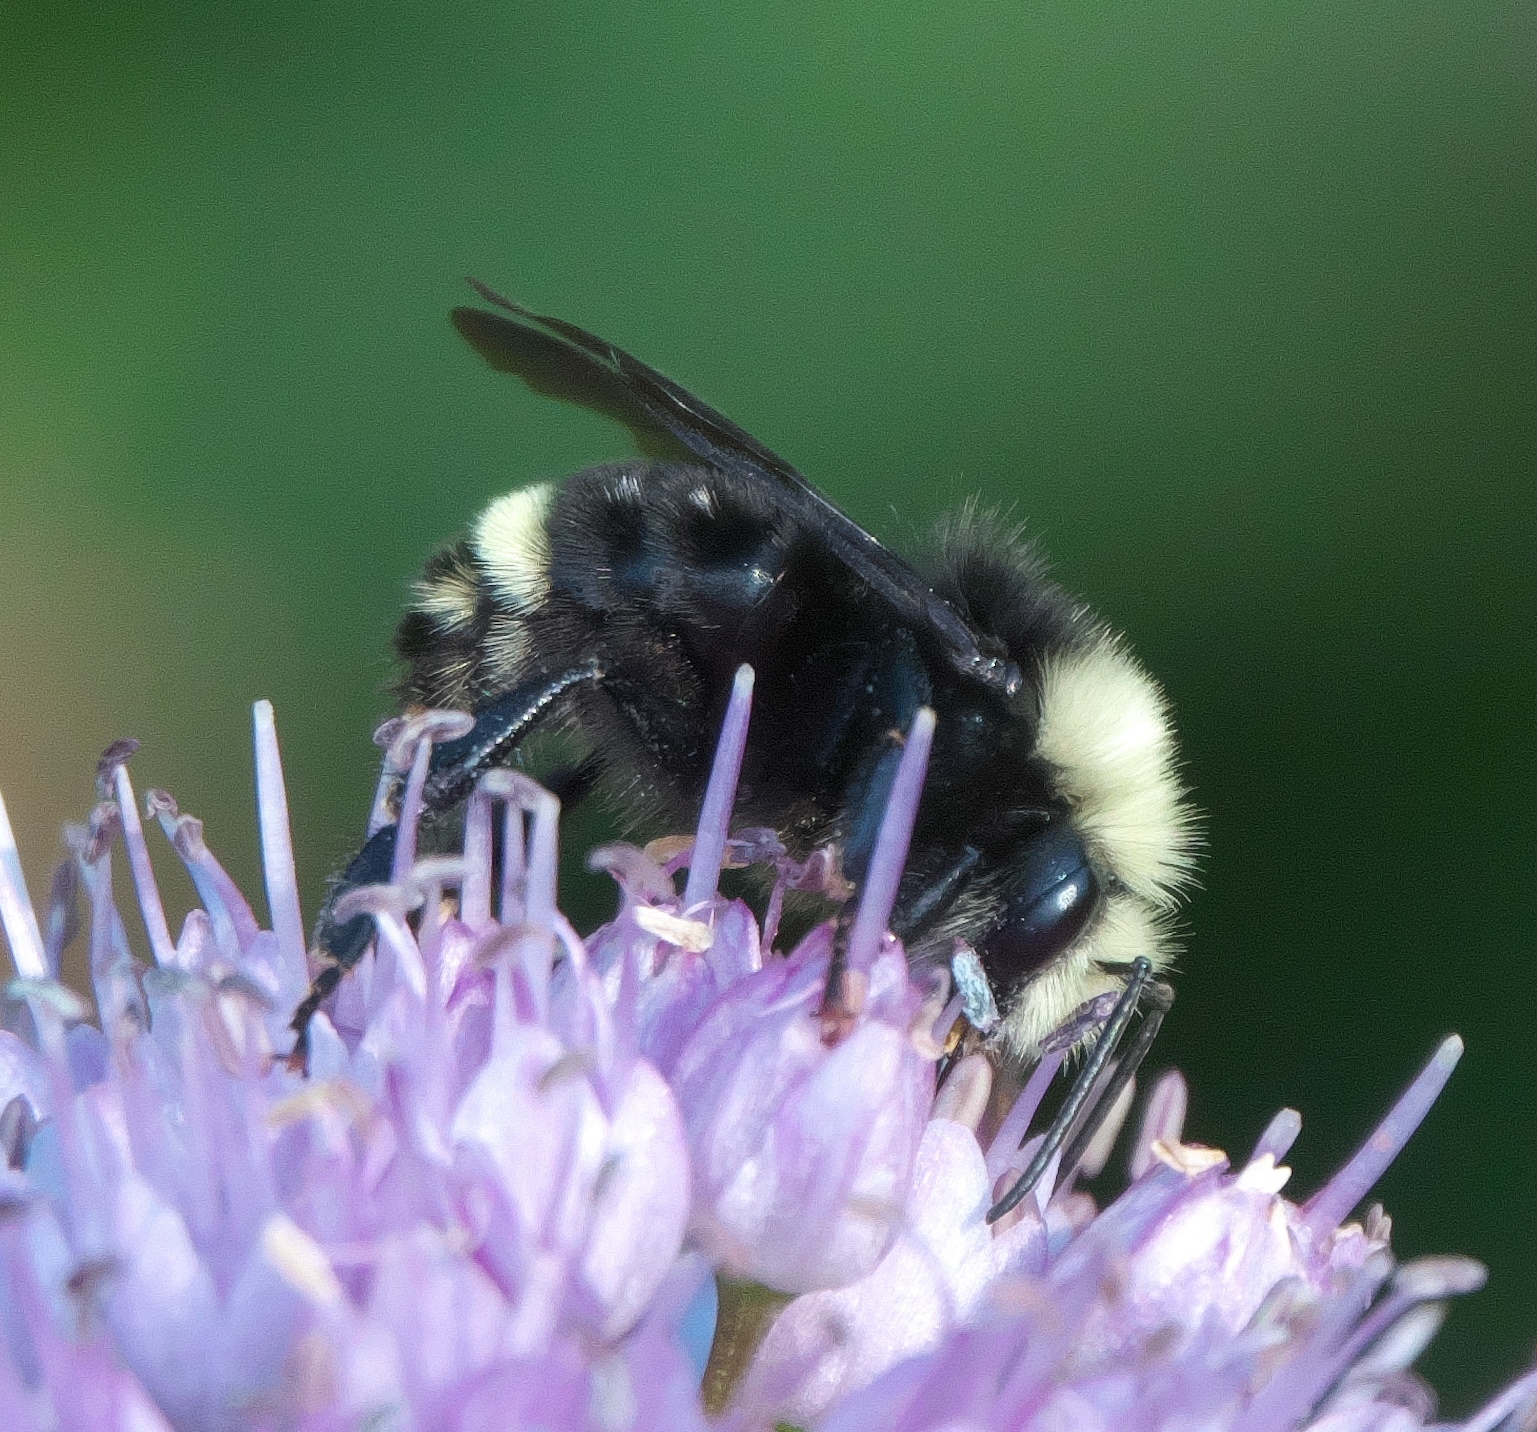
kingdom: Animalia
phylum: Arthropoda
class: Insecta
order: Hymenoptera
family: Apidae
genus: Bombus
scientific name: Bombus vosnesenskii
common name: Vosnesensky bumble bee
